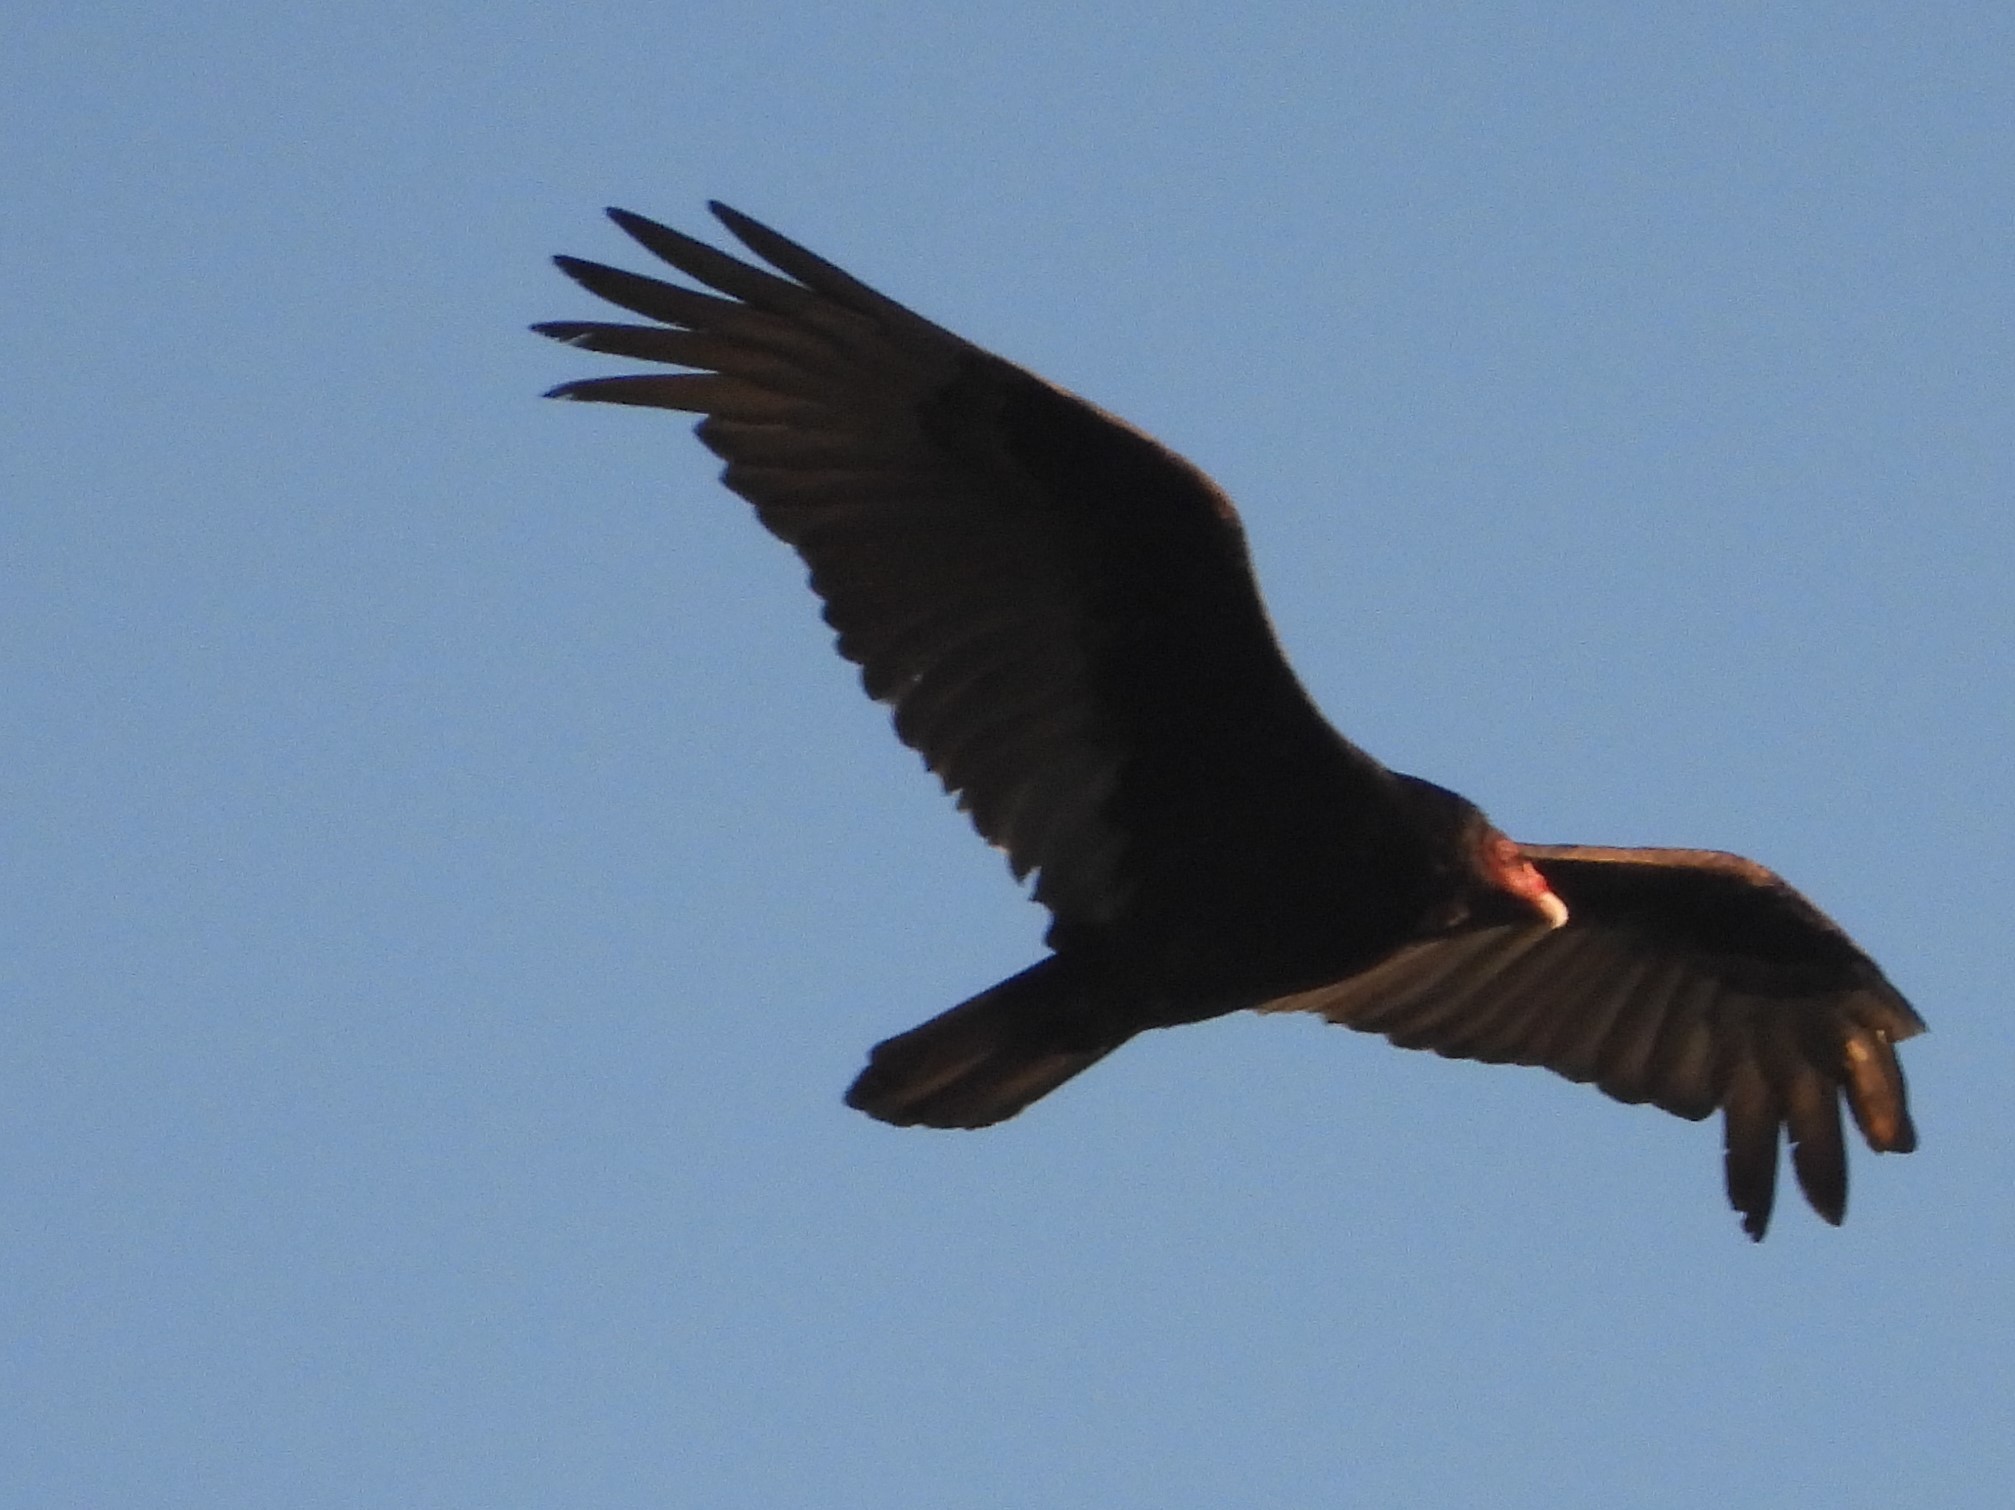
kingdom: Animalia
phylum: Chordata
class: Aves
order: Accipitriformes
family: Cathartidae
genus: Cathartes
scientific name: Cathartes aura
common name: Turkey vulture
